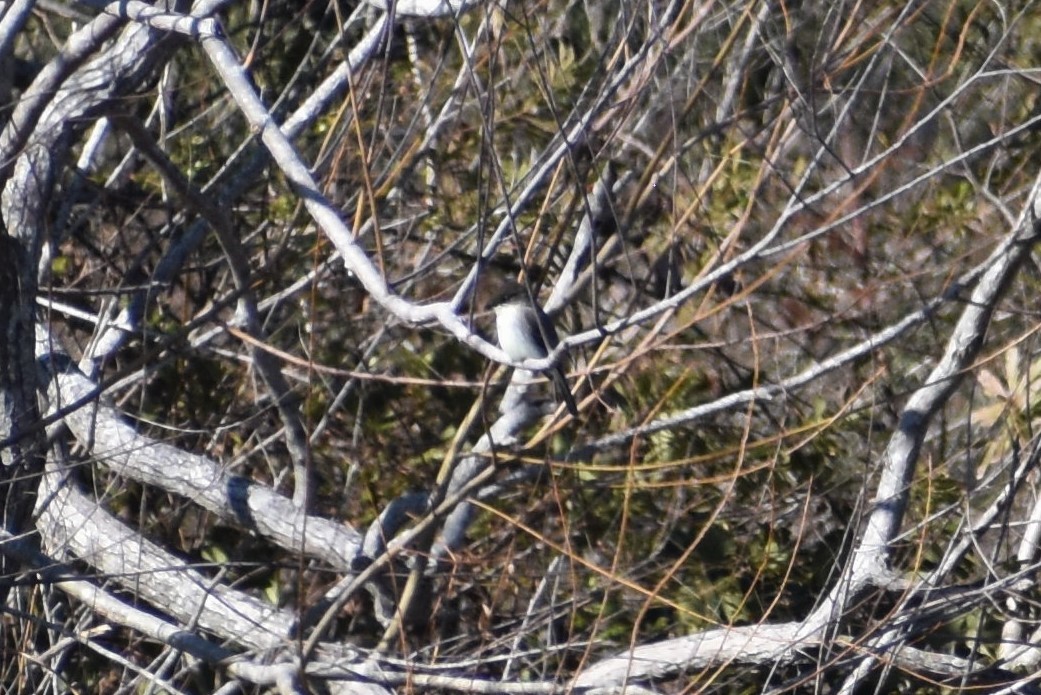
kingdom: Animalia
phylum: Chordata
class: Aves
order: Passeriformes
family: Tyrannidae
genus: Sayornis
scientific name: Sayornis phoebe
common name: Eastern phoebe
